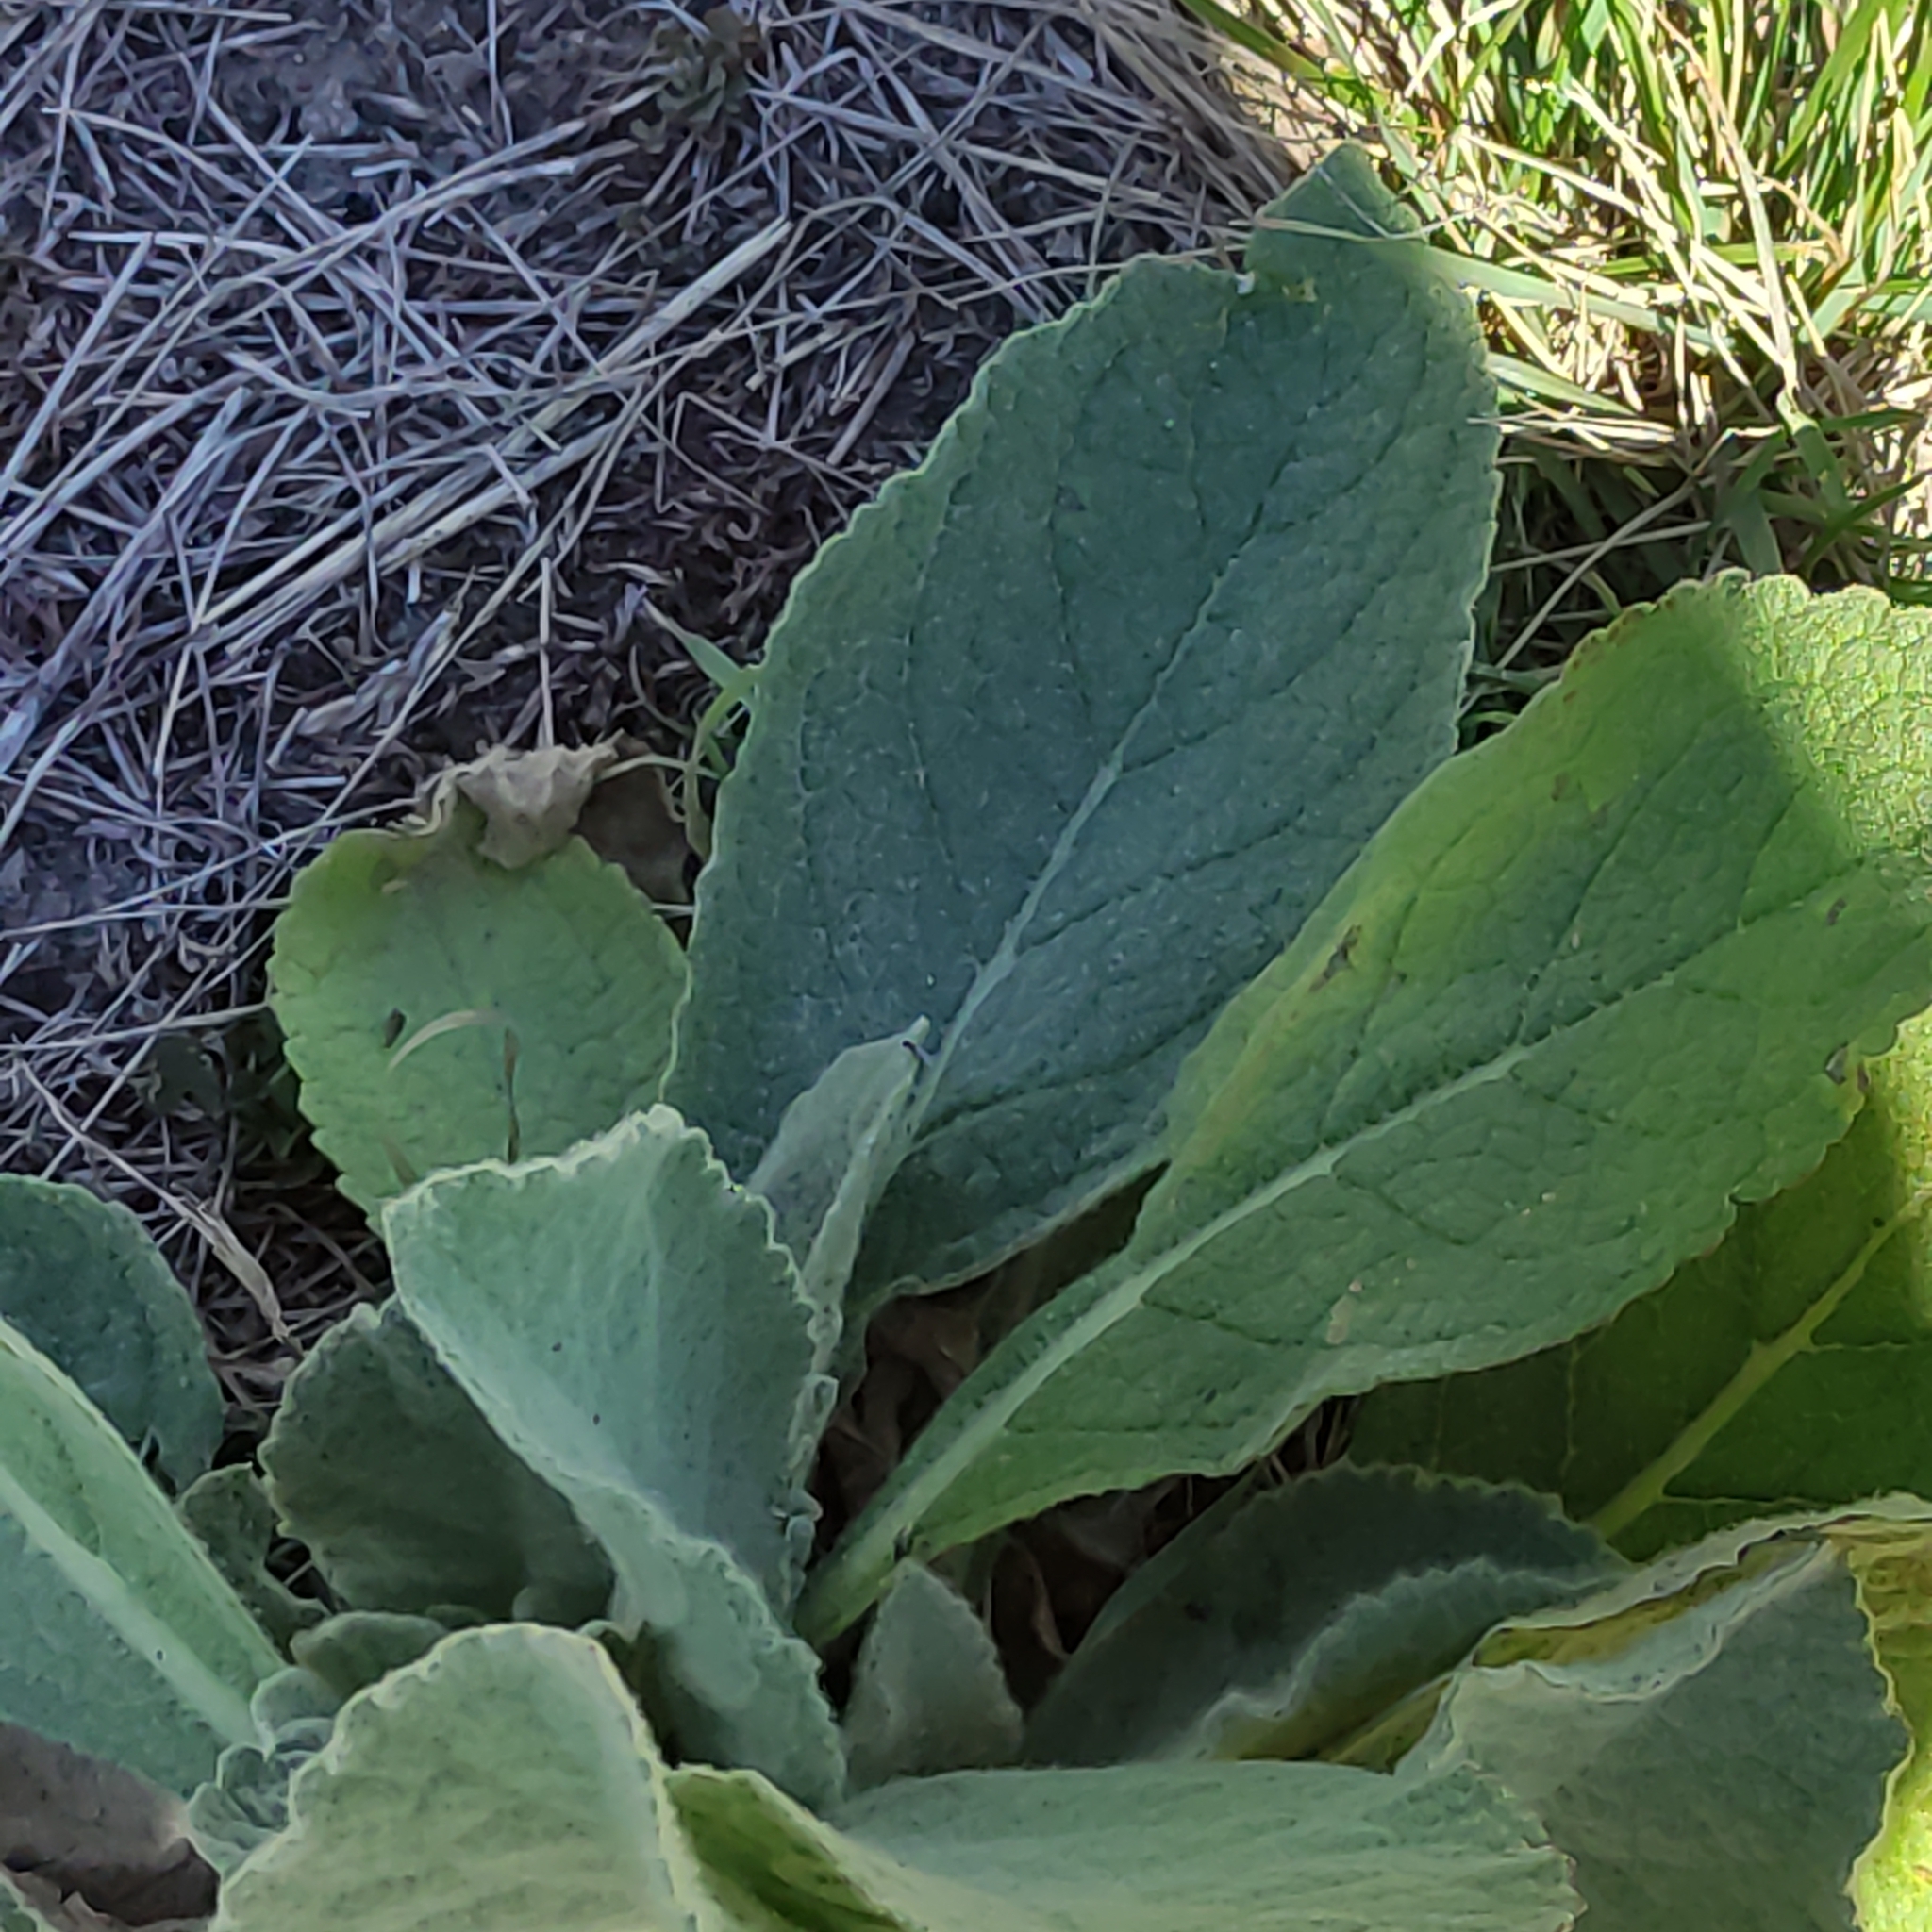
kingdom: Plantae
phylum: Tracheophyta
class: Magnoliopsida
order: Lamiales
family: Scrophulariaceae
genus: Verbascum
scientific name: Verbascum thapsus
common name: Common mullein
